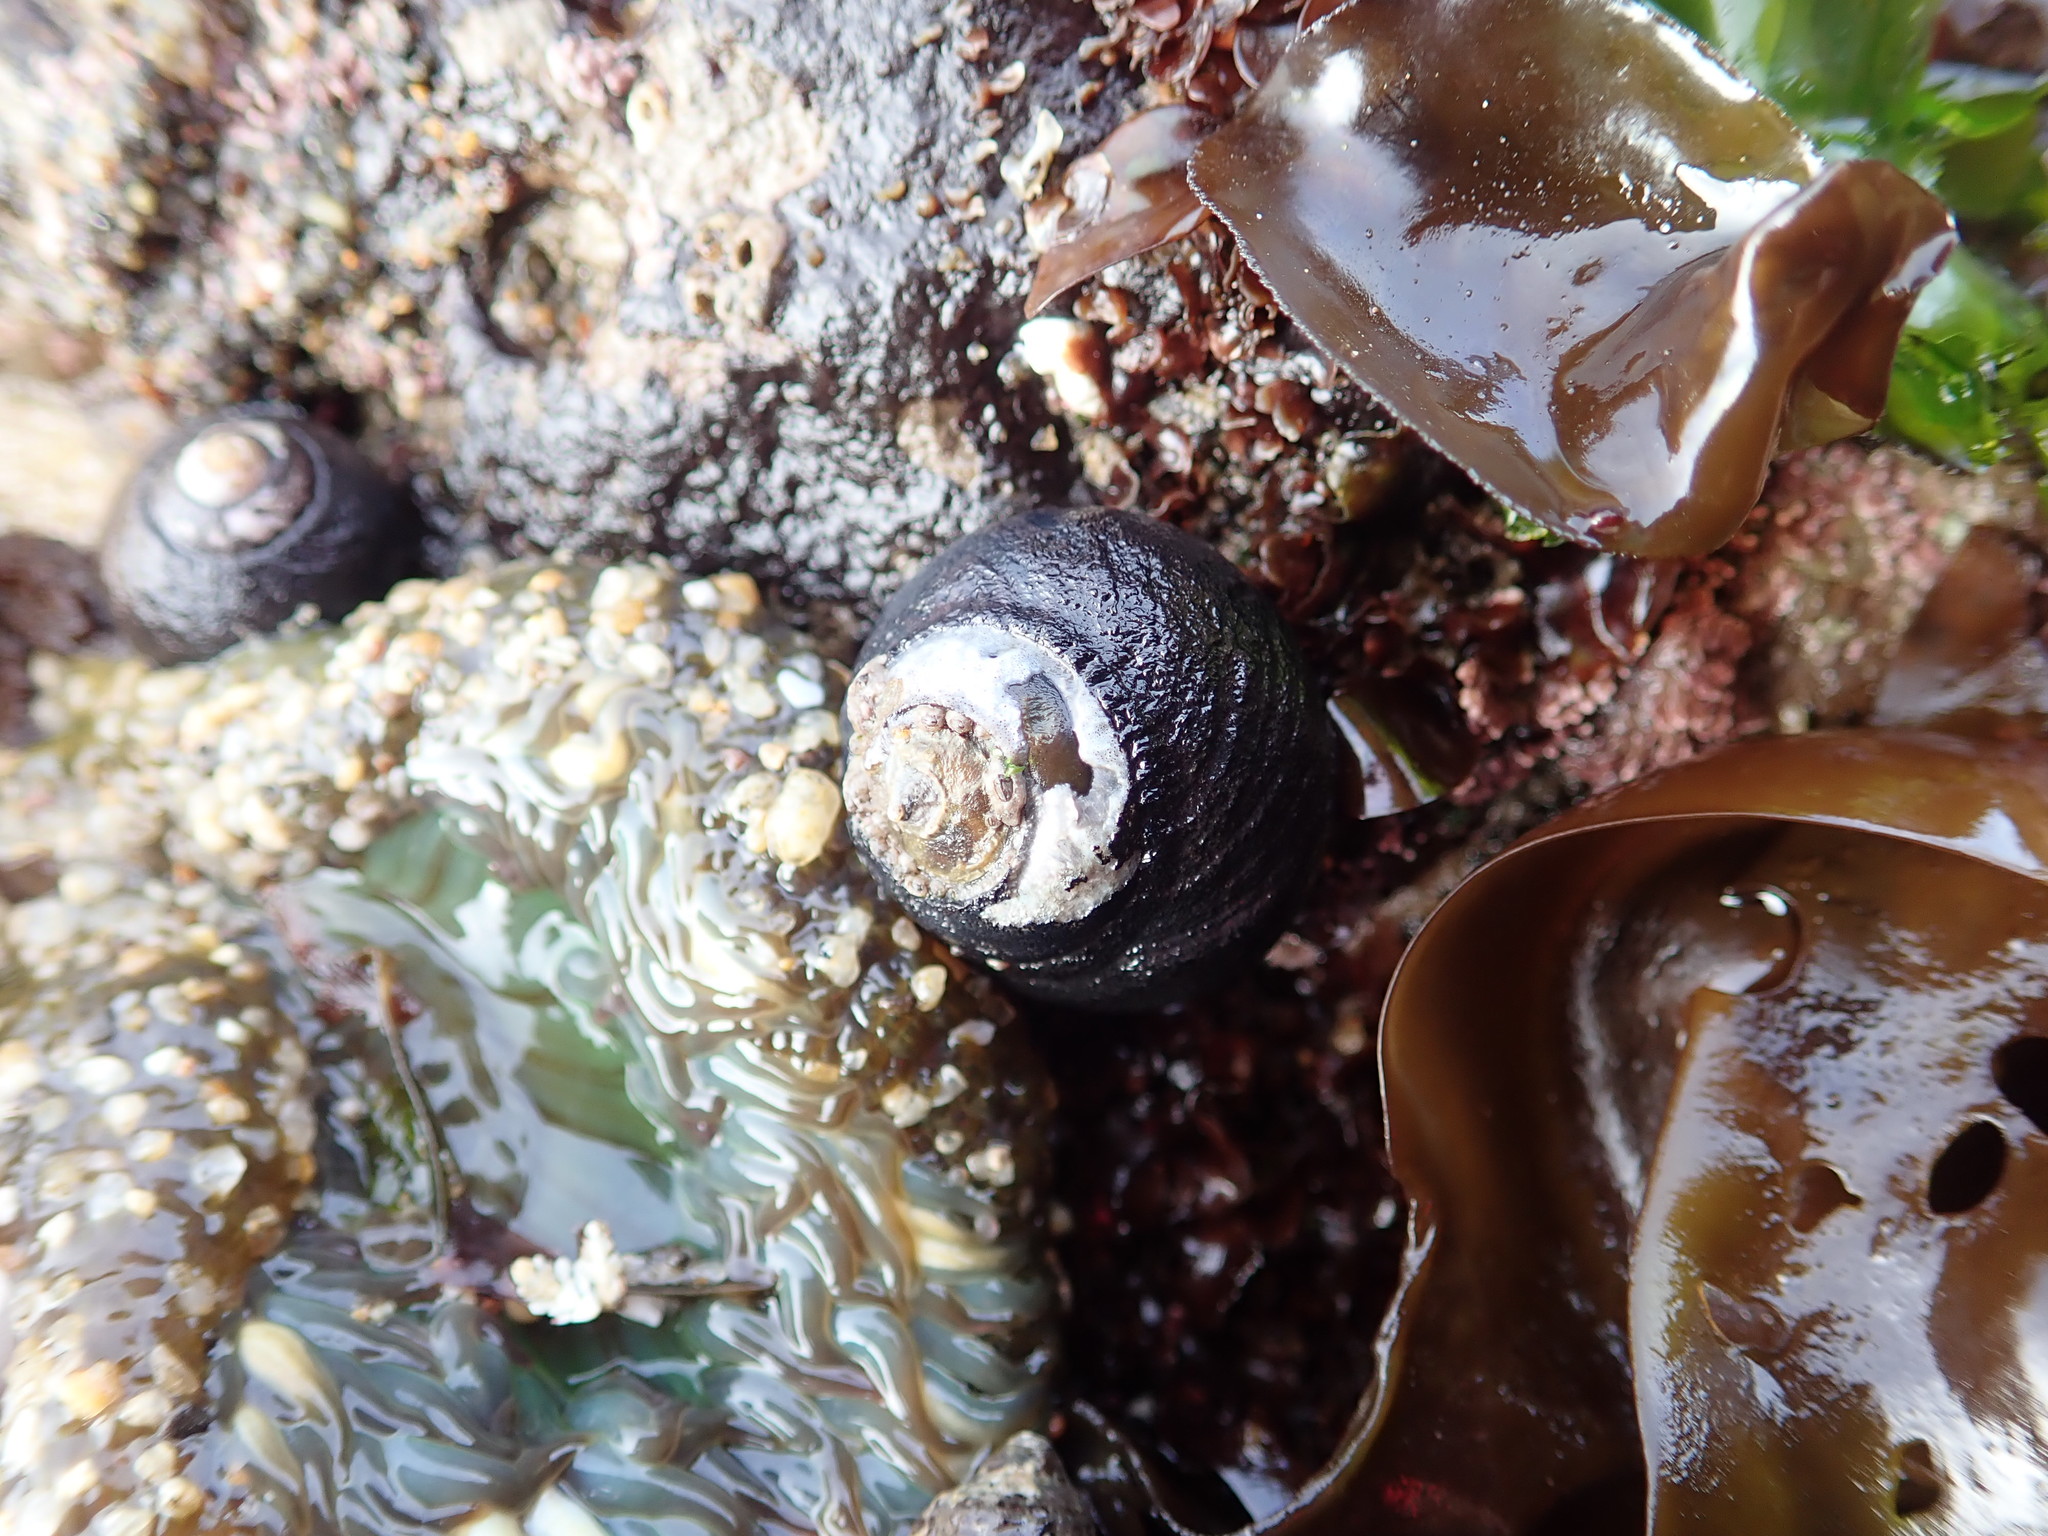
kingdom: Animalia
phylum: Mollusca
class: Gastropoda
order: Trochida
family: Tegulidae
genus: Tegula
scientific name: Tegula funebralis
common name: Black tegula
